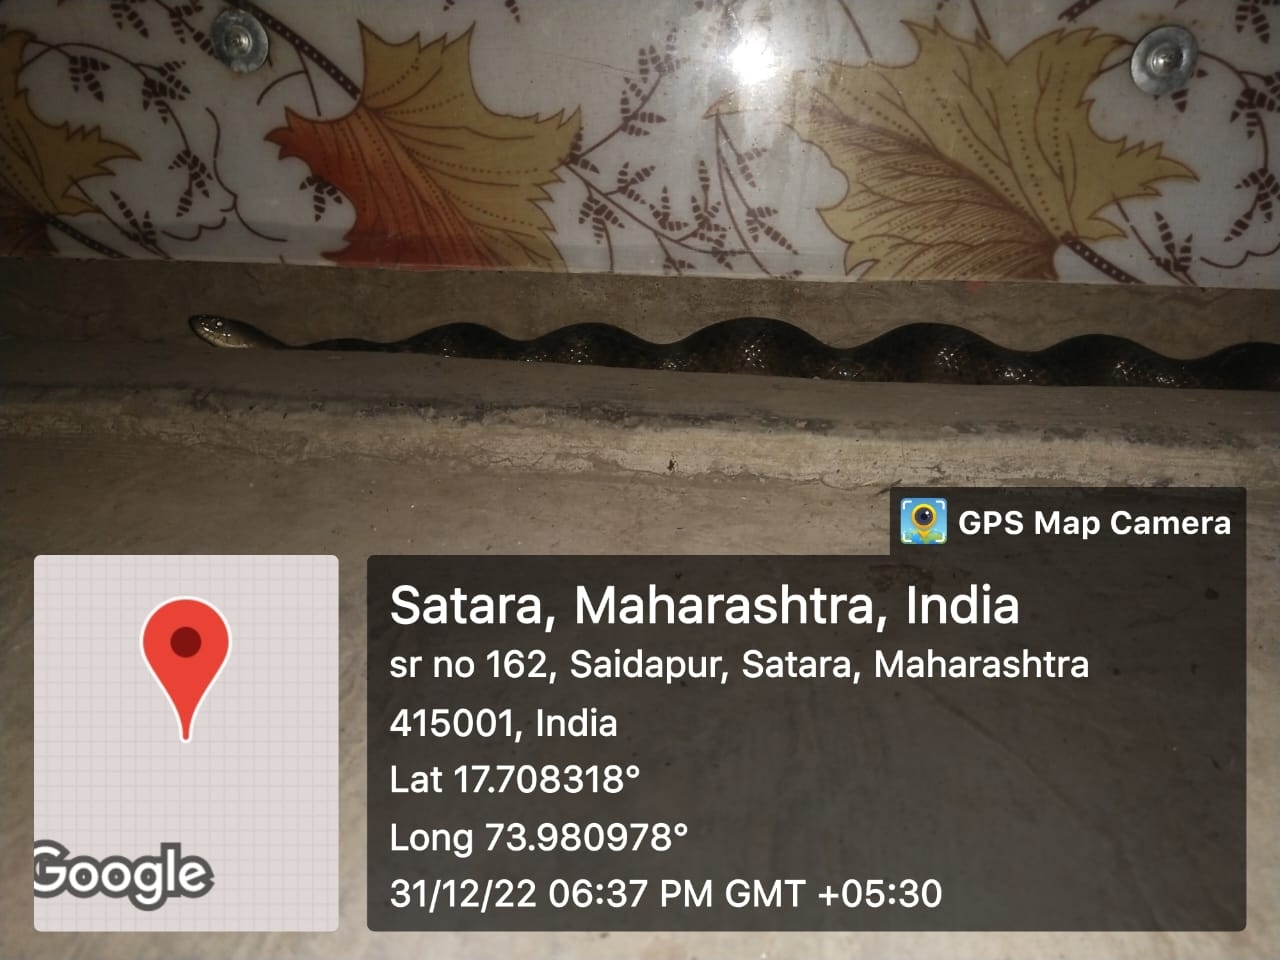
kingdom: Animalia
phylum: Chordata
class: Squamata
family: Colubridae
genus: Fowlea
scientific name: Fowlea piscator
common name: Asiatic water snake
